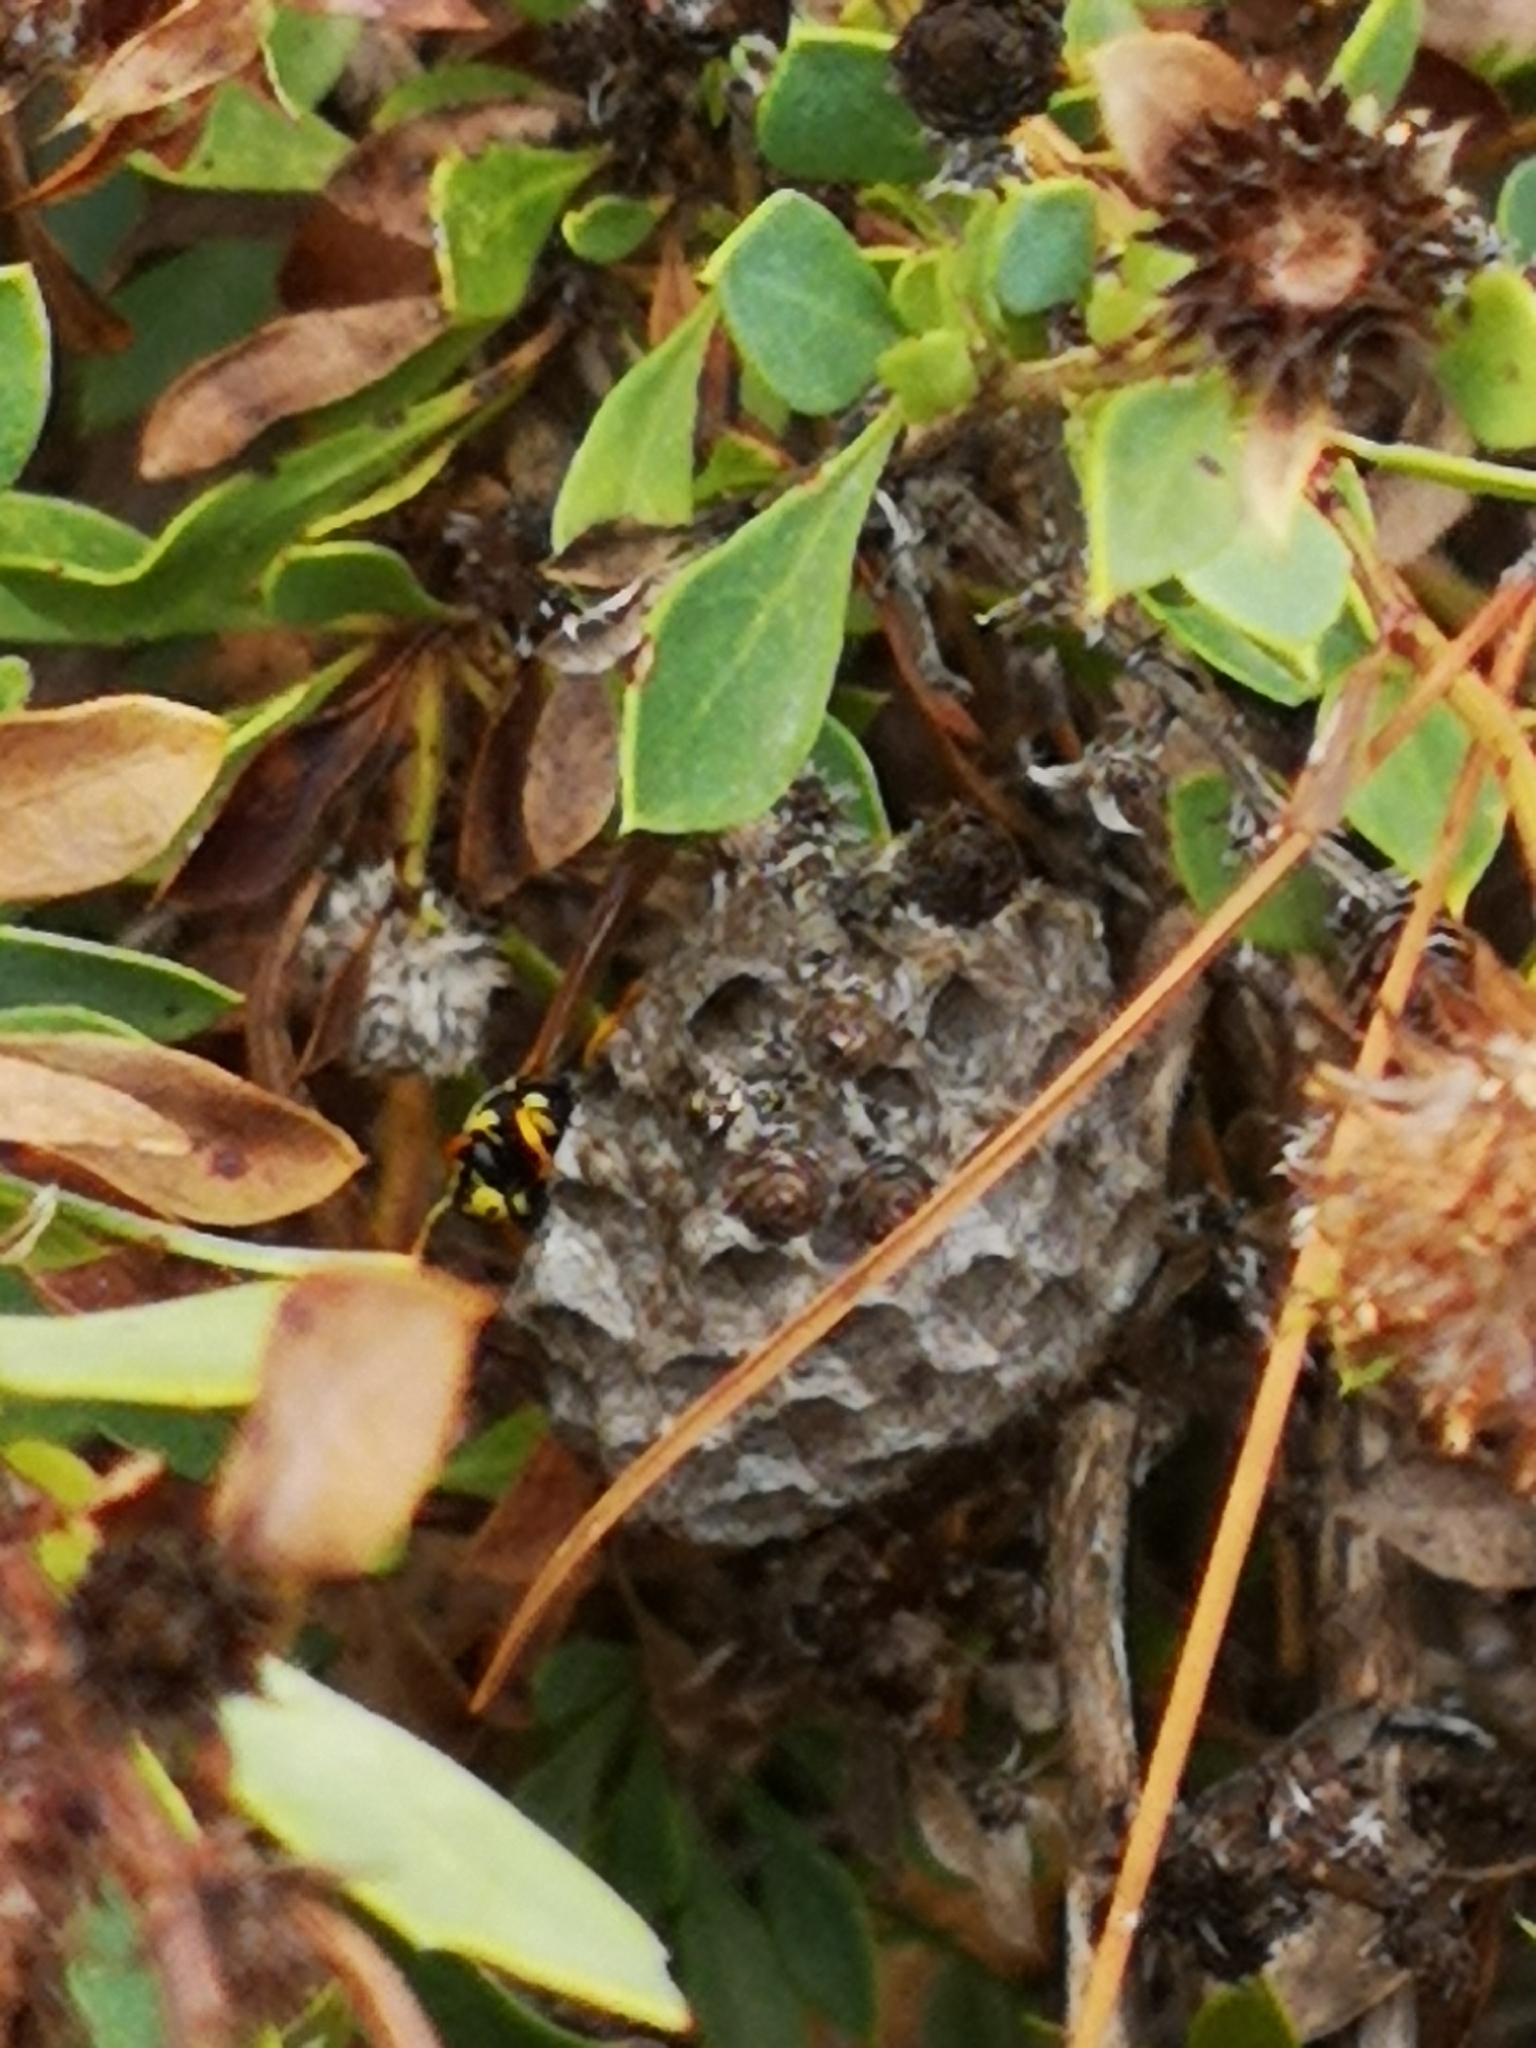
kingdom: Animalia
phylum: Arthropoda
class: Insecta
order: Hymenoptera
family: Eumenidae
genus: Polistes
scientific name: Polistes gallicus
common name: Paper wasp
